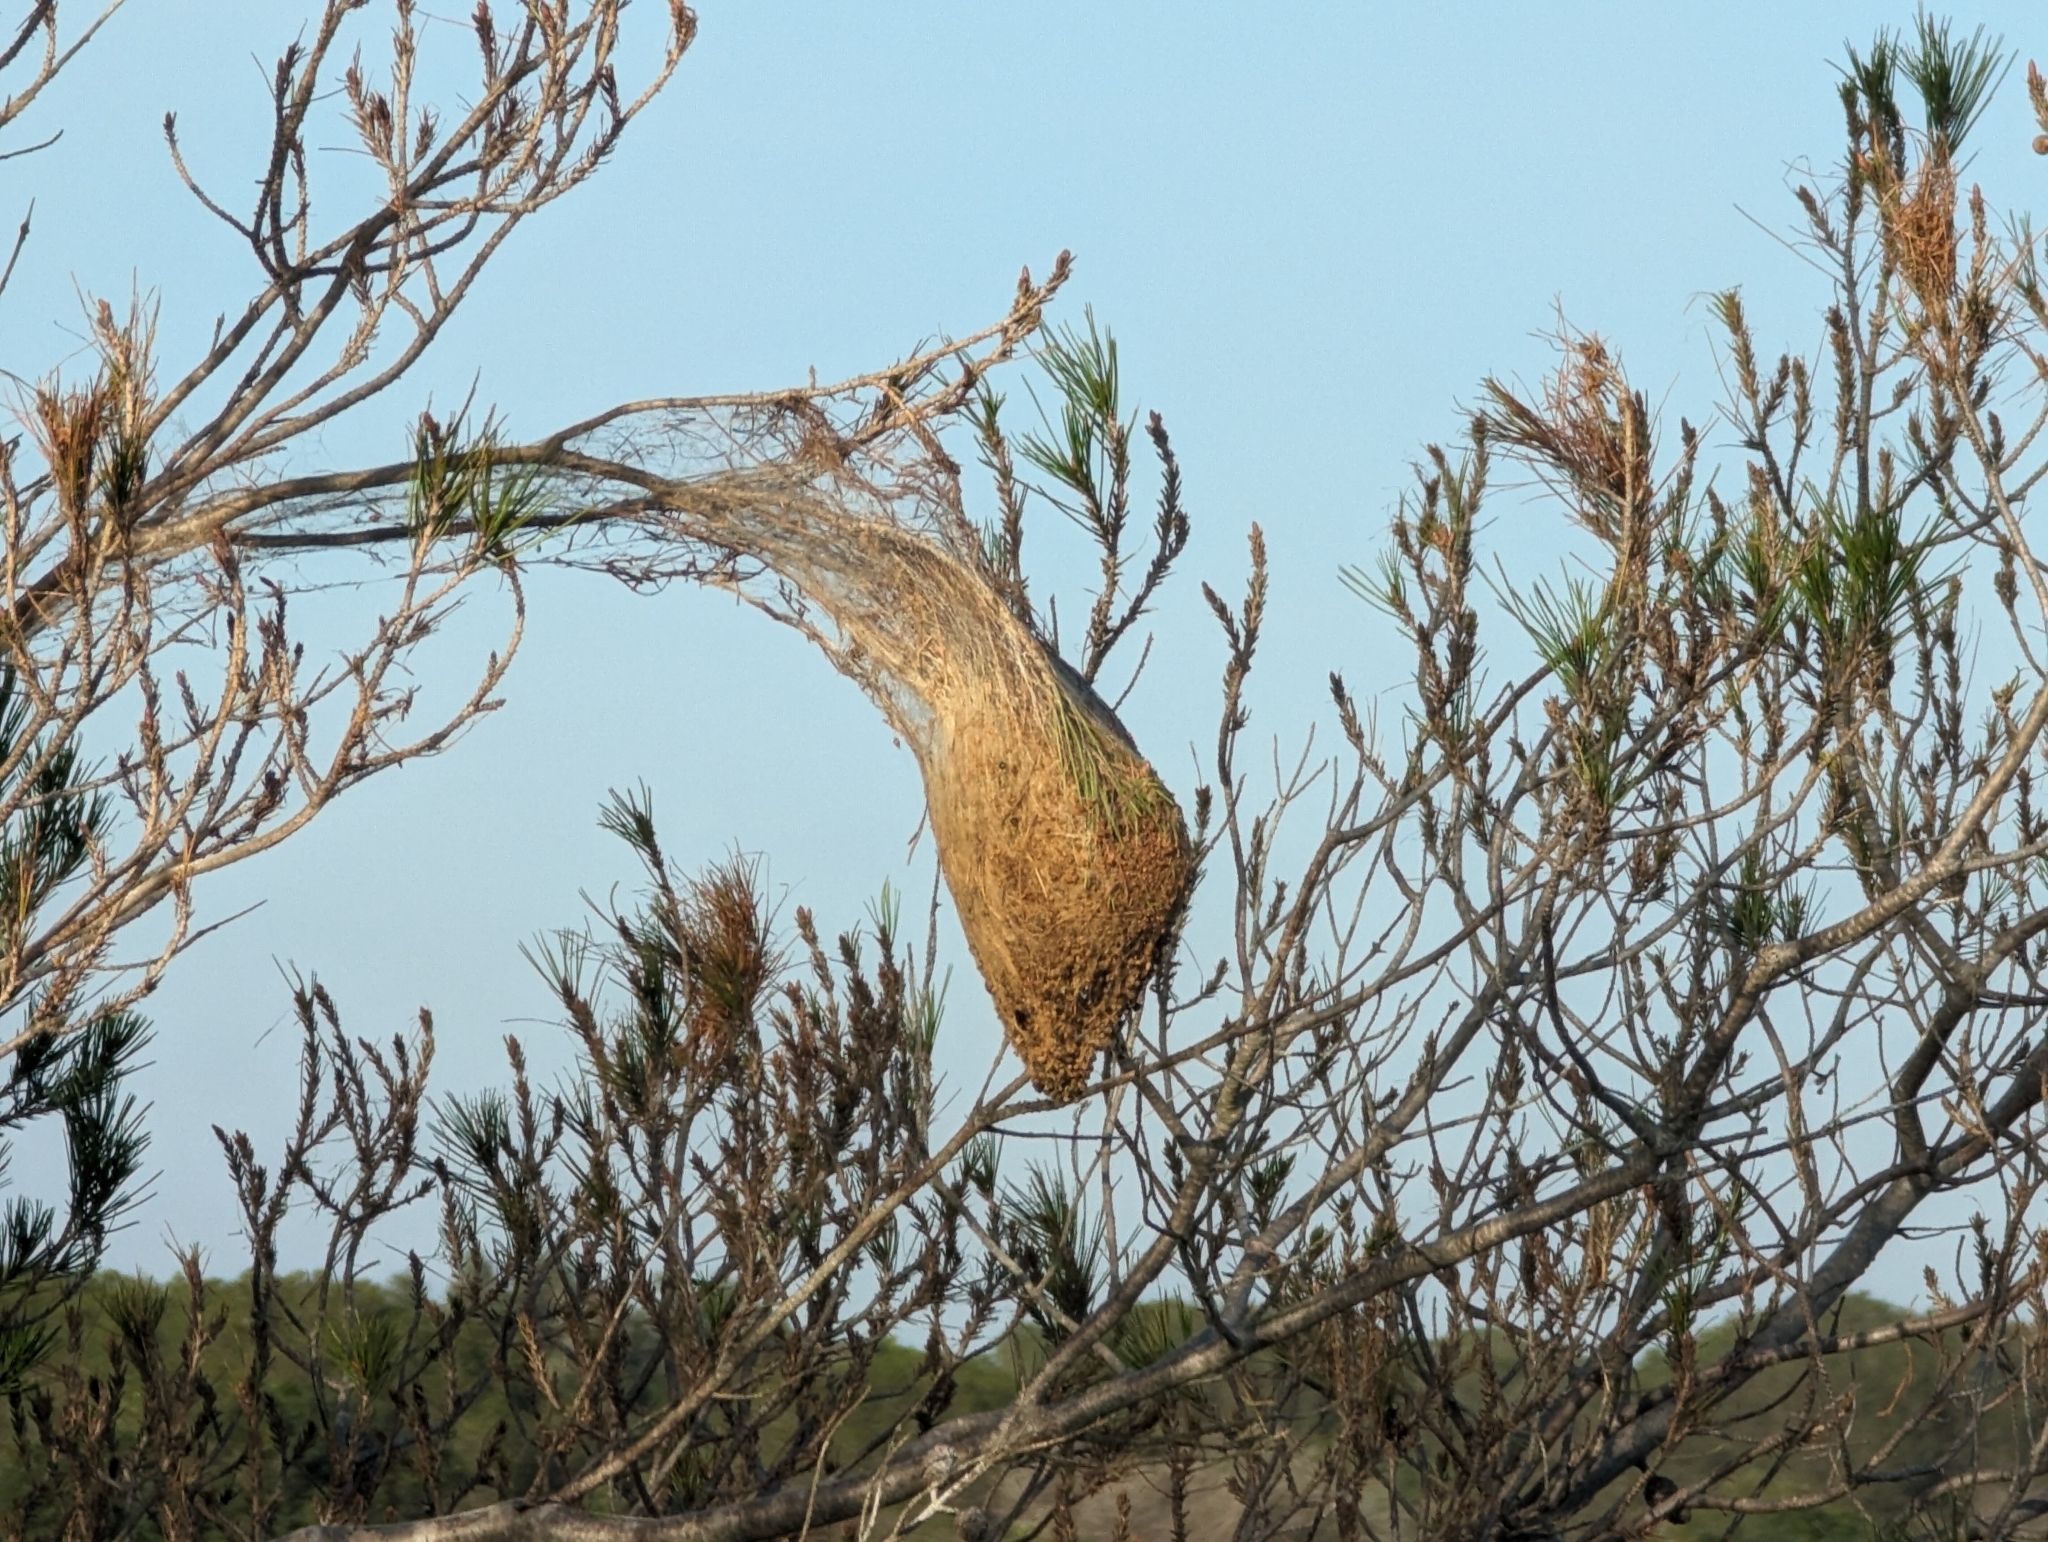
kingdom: Animalia
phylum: Arthropoda
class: Insecta
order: Lepidoptera
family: Notodontidae
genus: Thaumetopoea
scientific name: Thaumetopoea pityocampa
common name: Pine processionary
